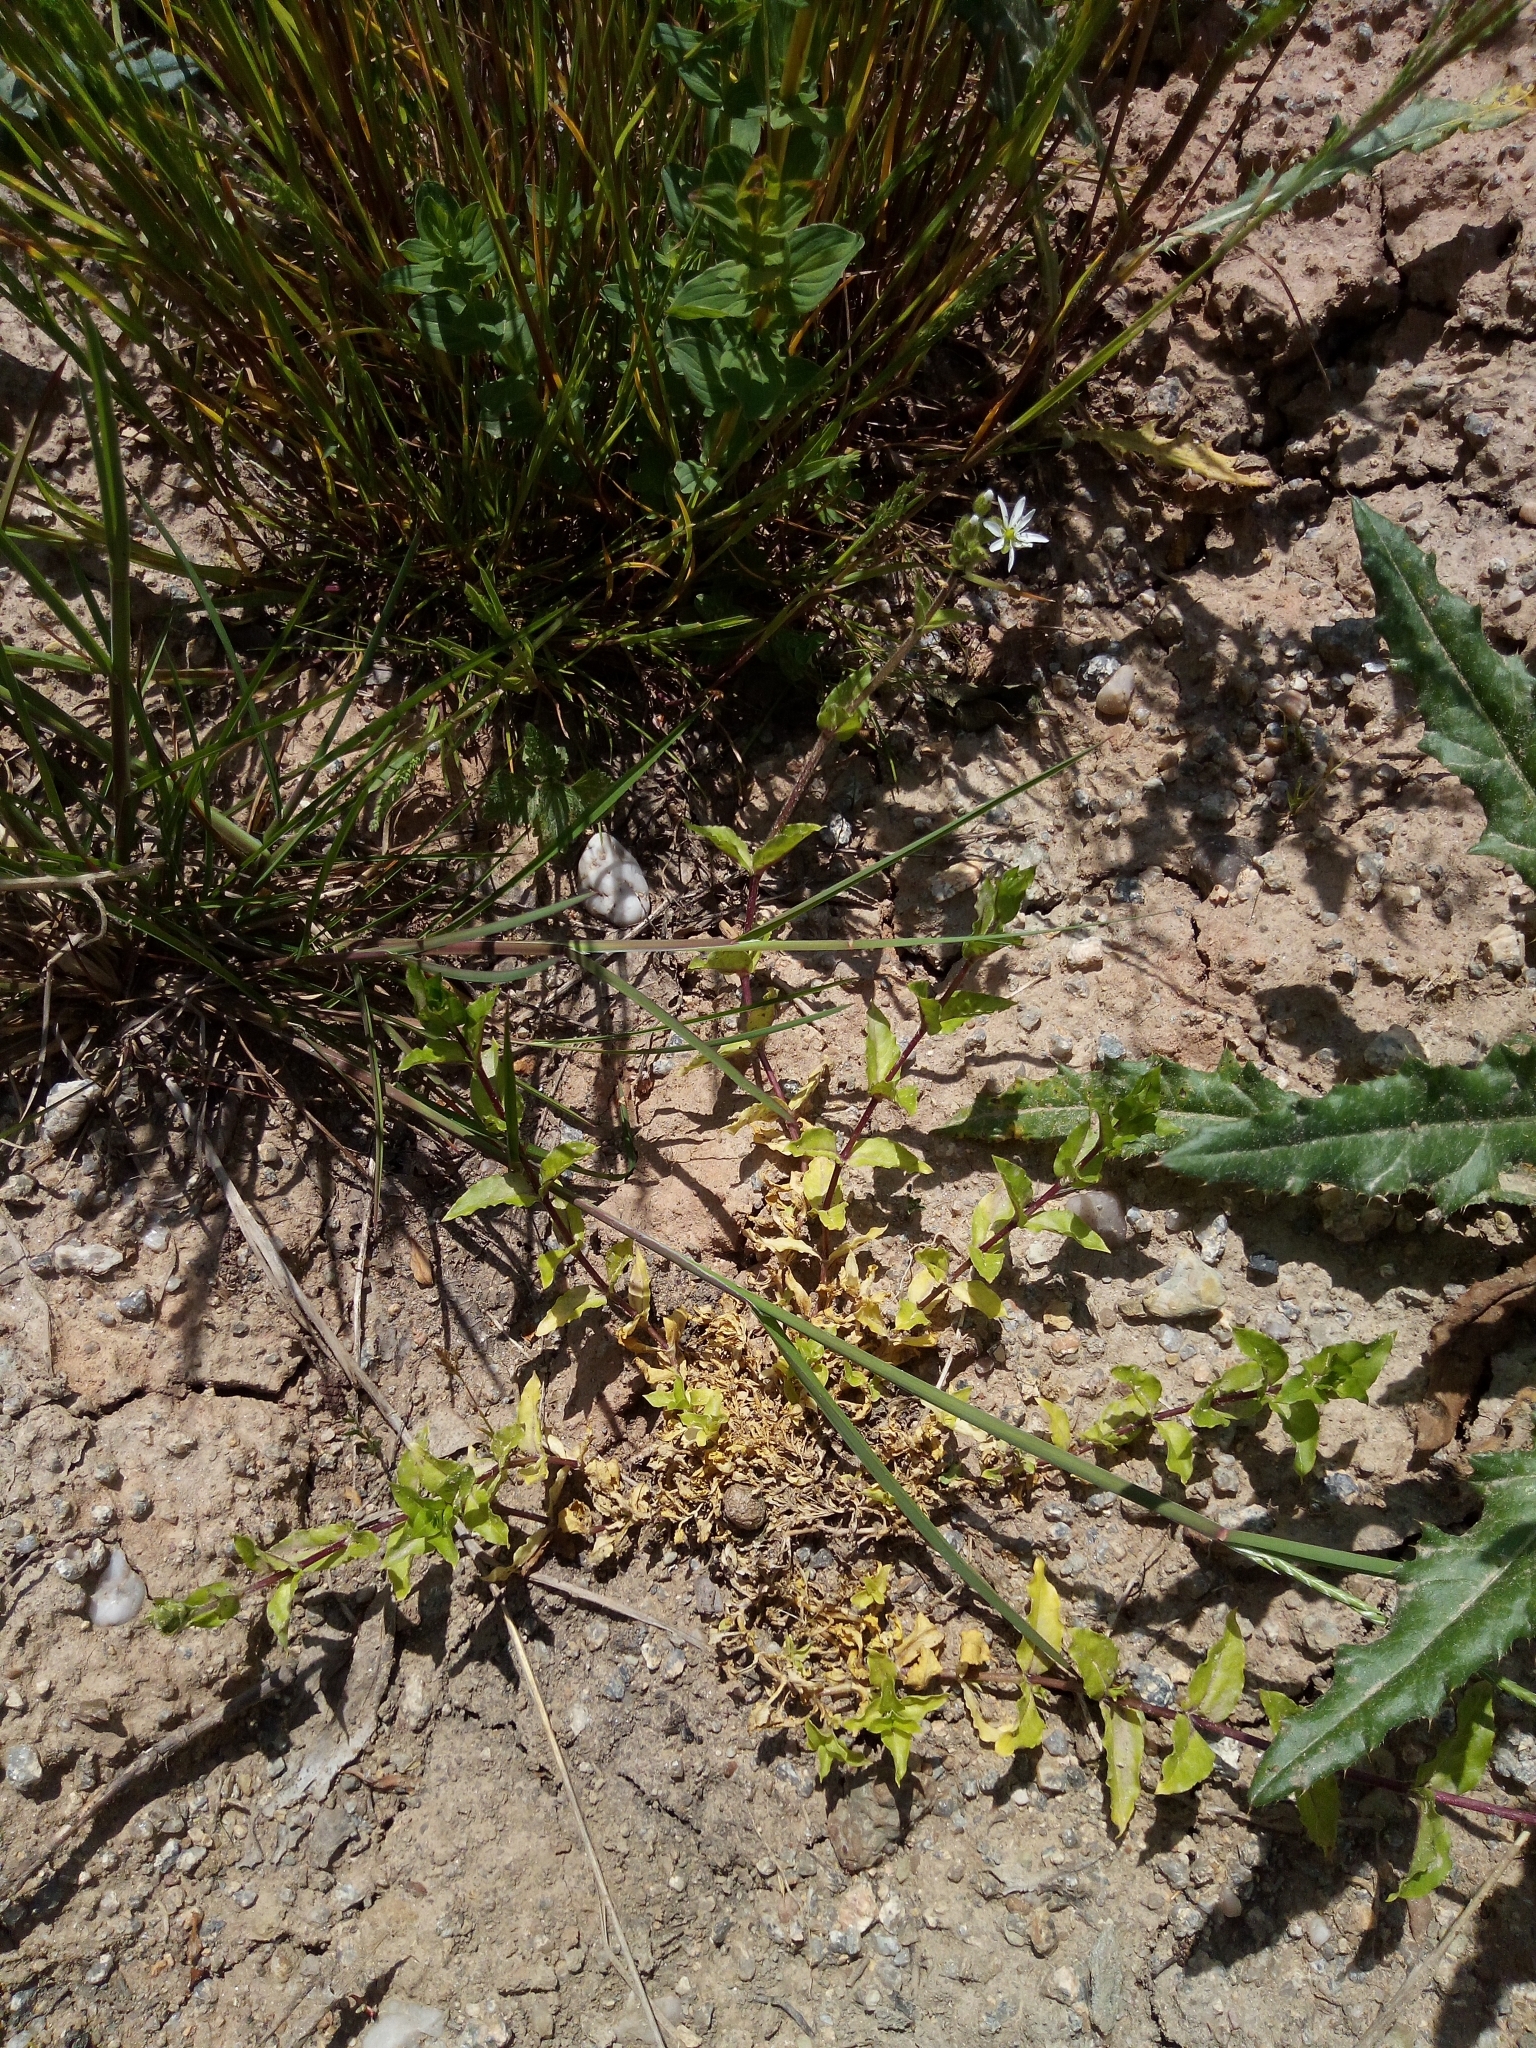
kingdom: Plantae
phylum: Tracheophyta
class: Magnoliopsida
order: Caryophyllales
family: Caryophyllaceae
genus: Stellaria
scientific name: Stellaria aquatica
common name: Water chickweed
